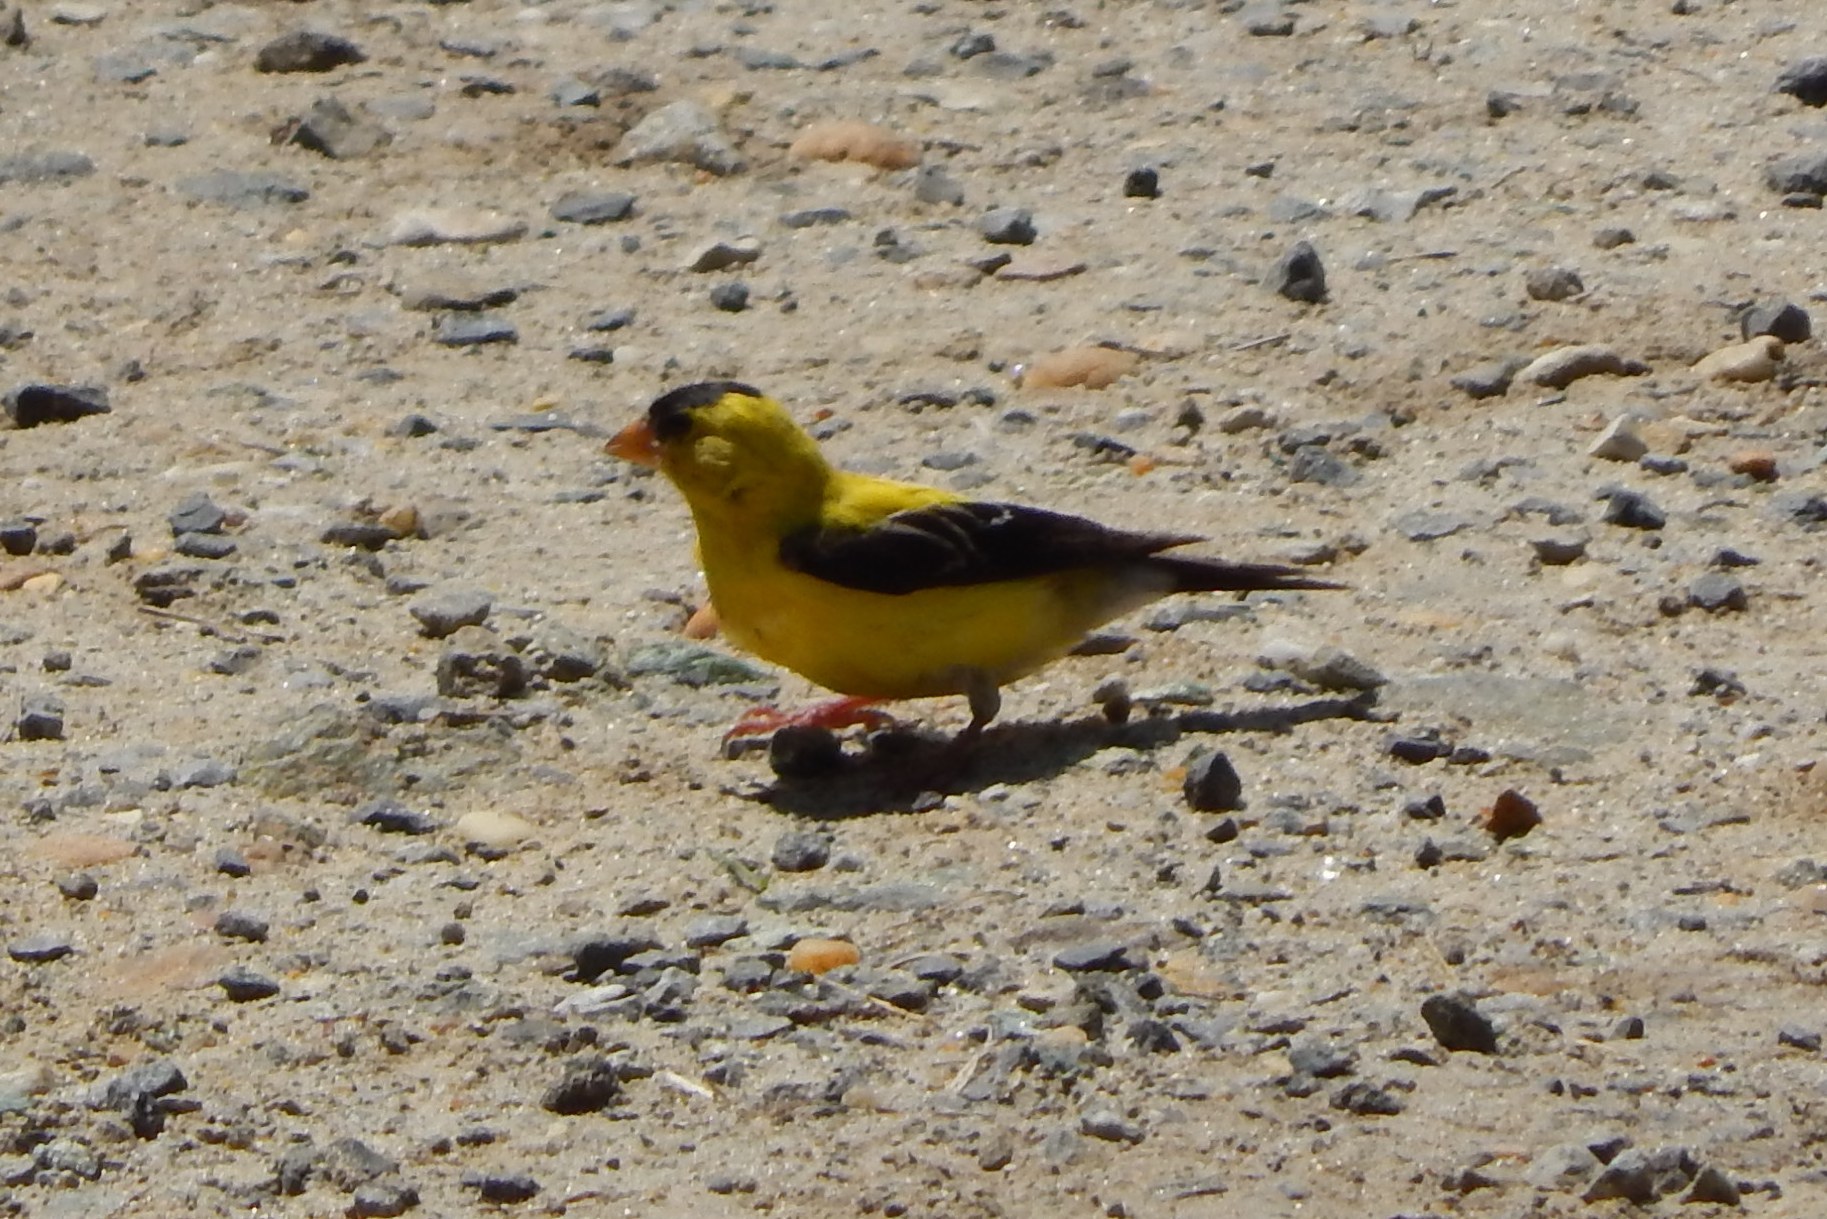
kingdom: Animalia
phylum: Chordata
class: Aves
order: Passeriformes
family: Fringillidae
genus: Spinus
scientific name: Spinus tristis
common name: American goldfinch
